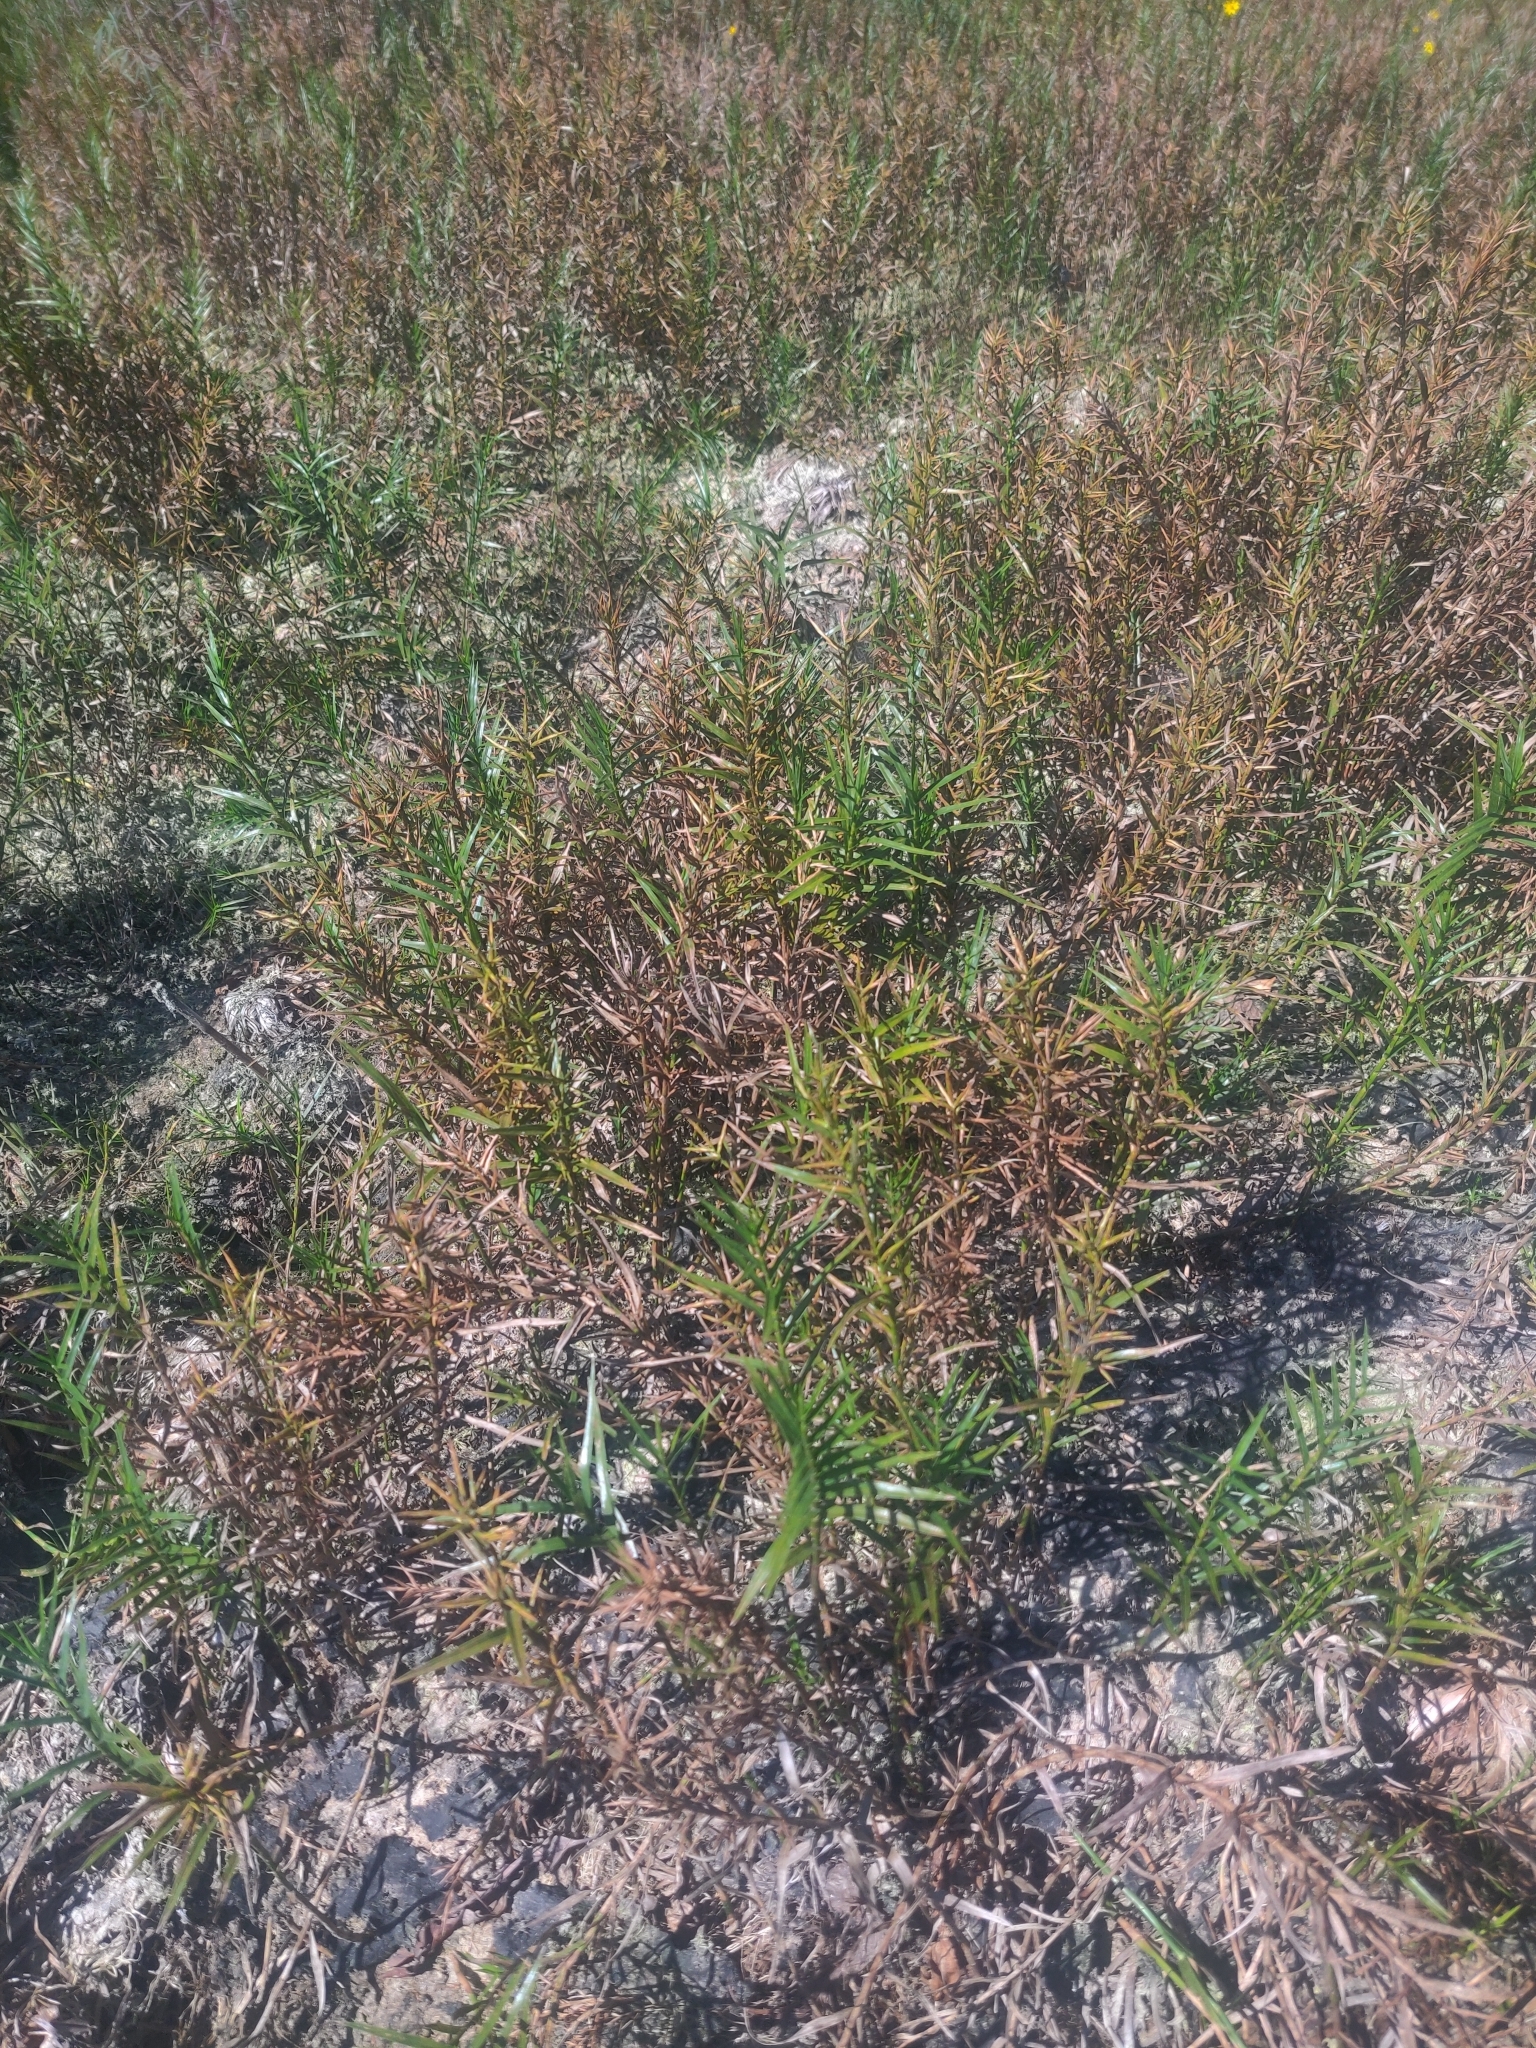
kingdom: Plantae
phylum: Tracheophyta
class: Liliopsida
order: Poales
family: Cyperaceae
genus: Dulichium
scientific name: Dulichium arundinaceum
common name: Three-way sedge
